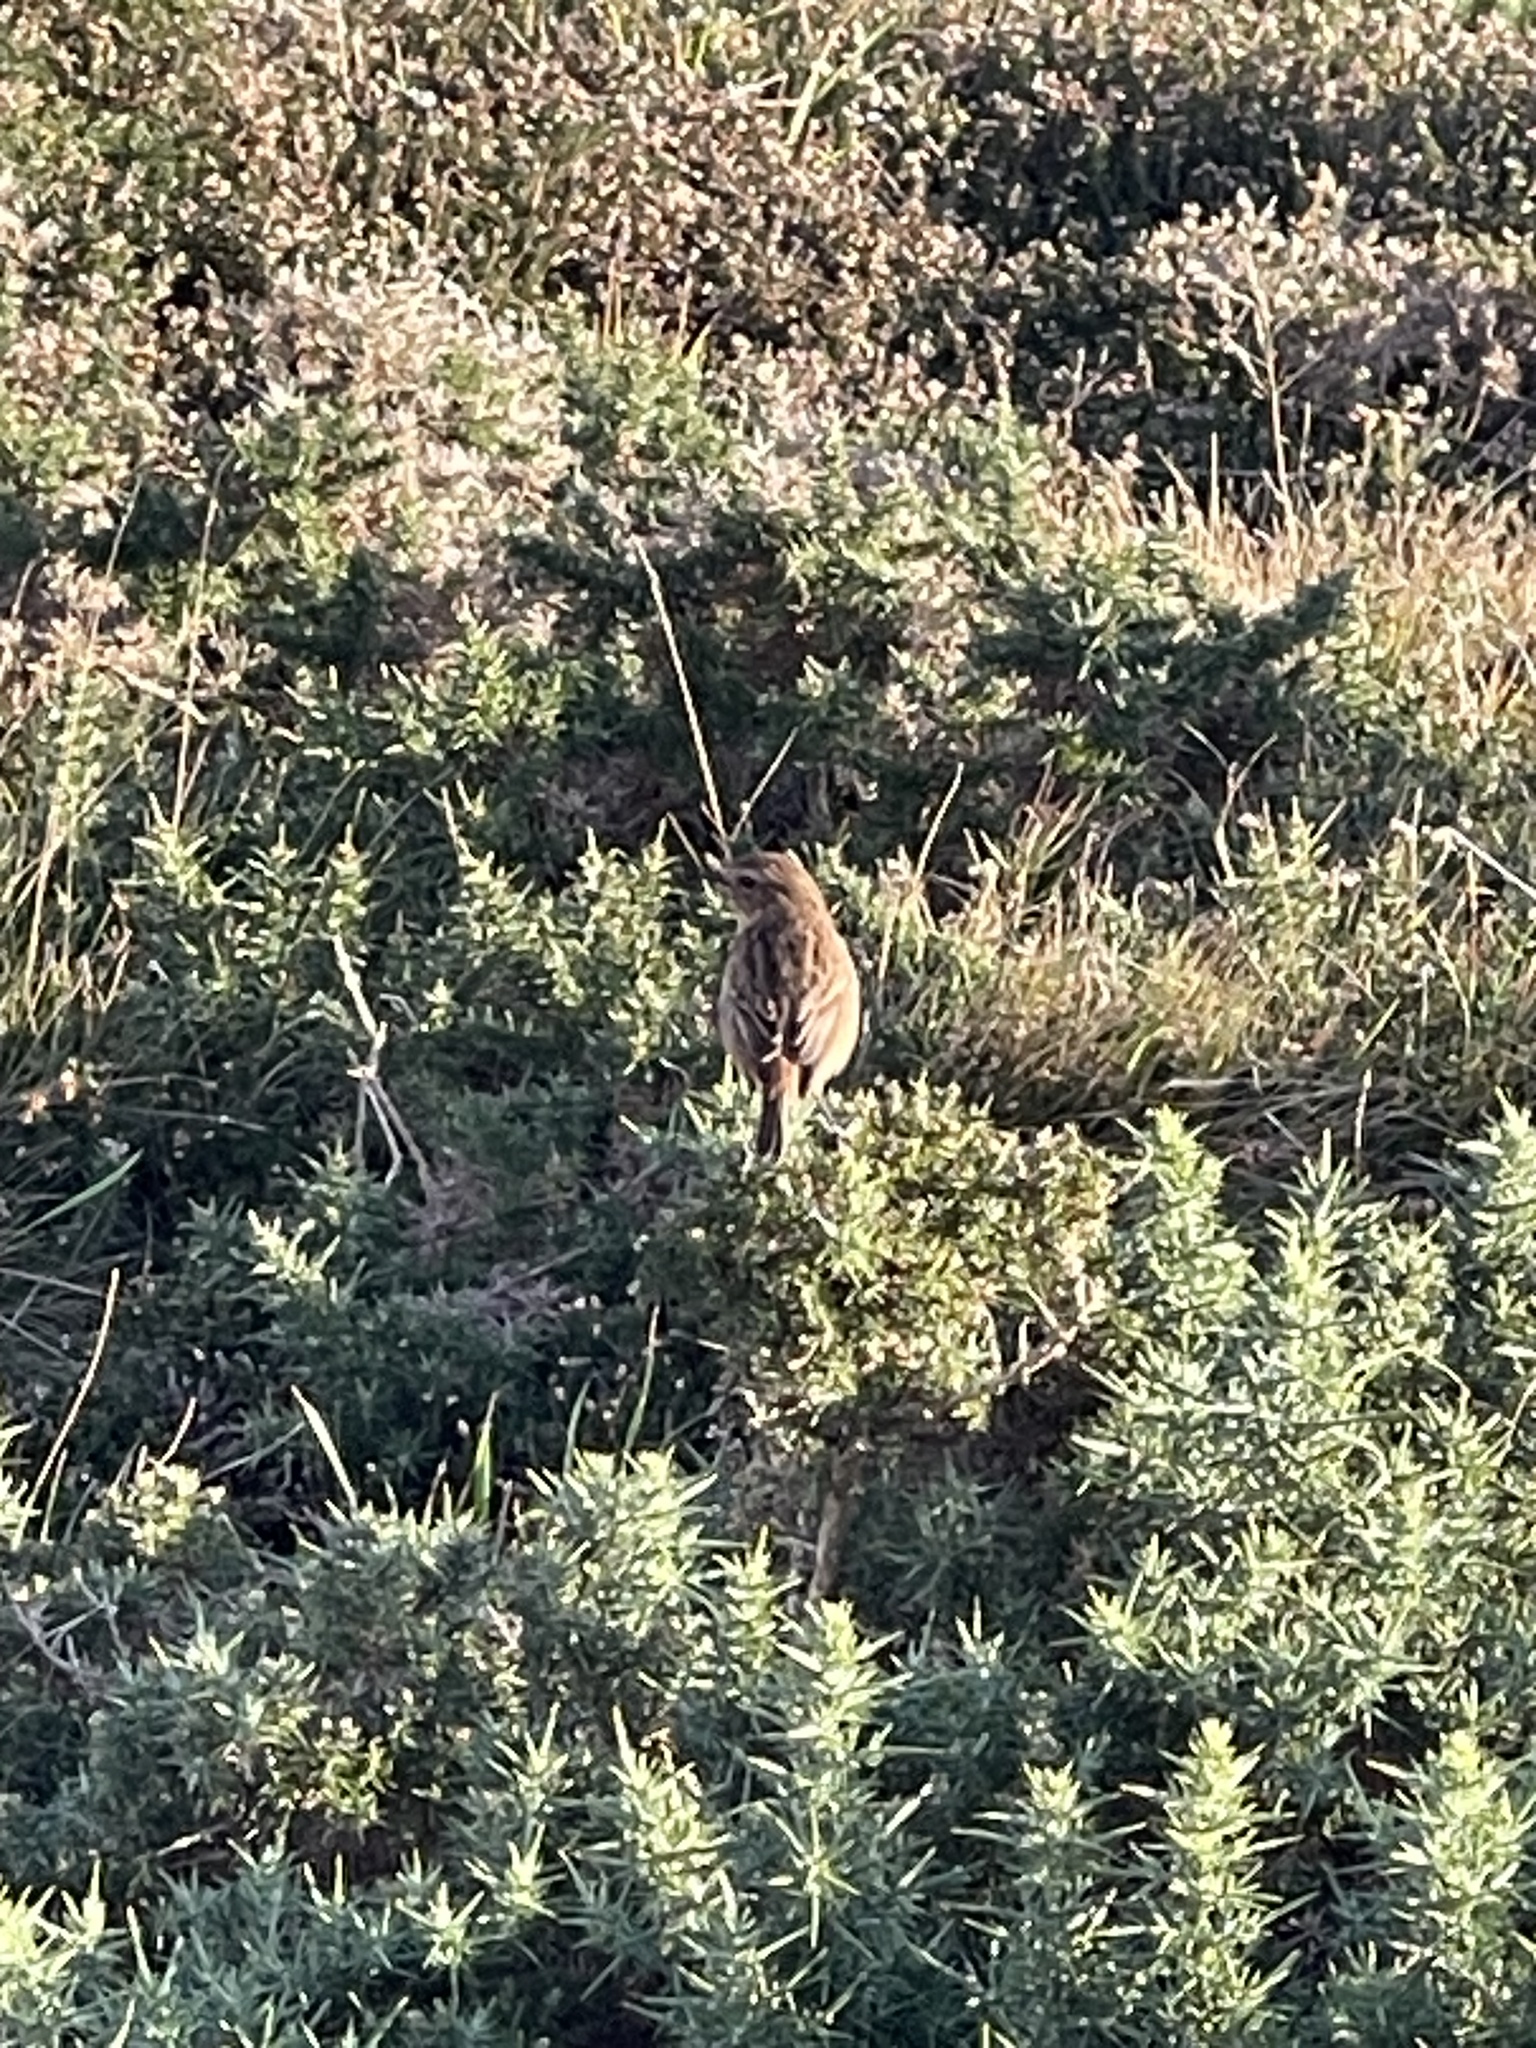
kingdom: Animalia
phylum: Chordata
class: Aves
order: Passeriformes
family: Muscicapidae
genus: Saxicola
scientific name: Saxicola rubicola
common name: European stonechat
